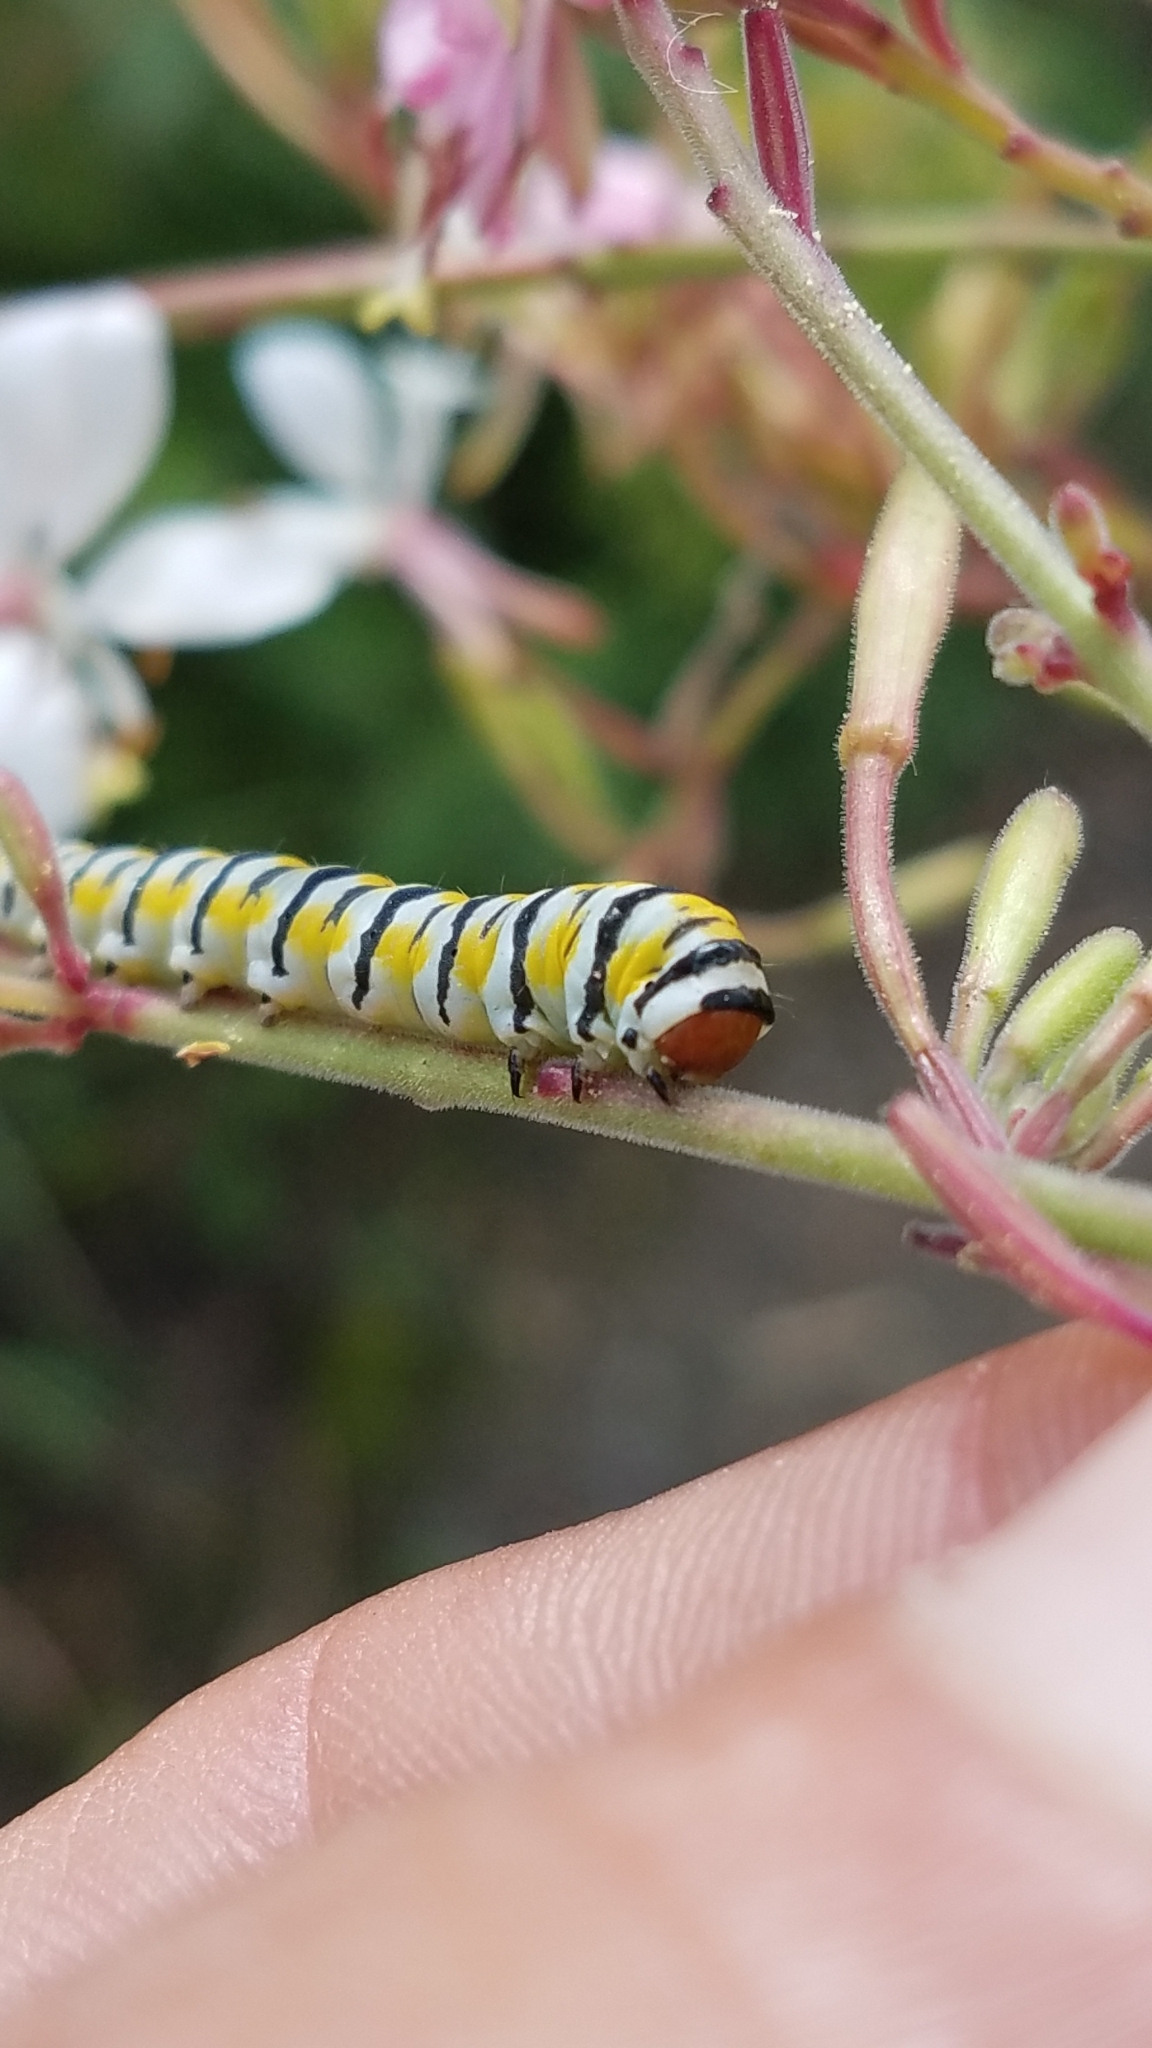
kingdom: Animalia
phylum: Arthropoda
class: Insecta
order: Lepidoptera
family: Noctuidae
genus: Schinia
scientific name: Schinia gaurae
